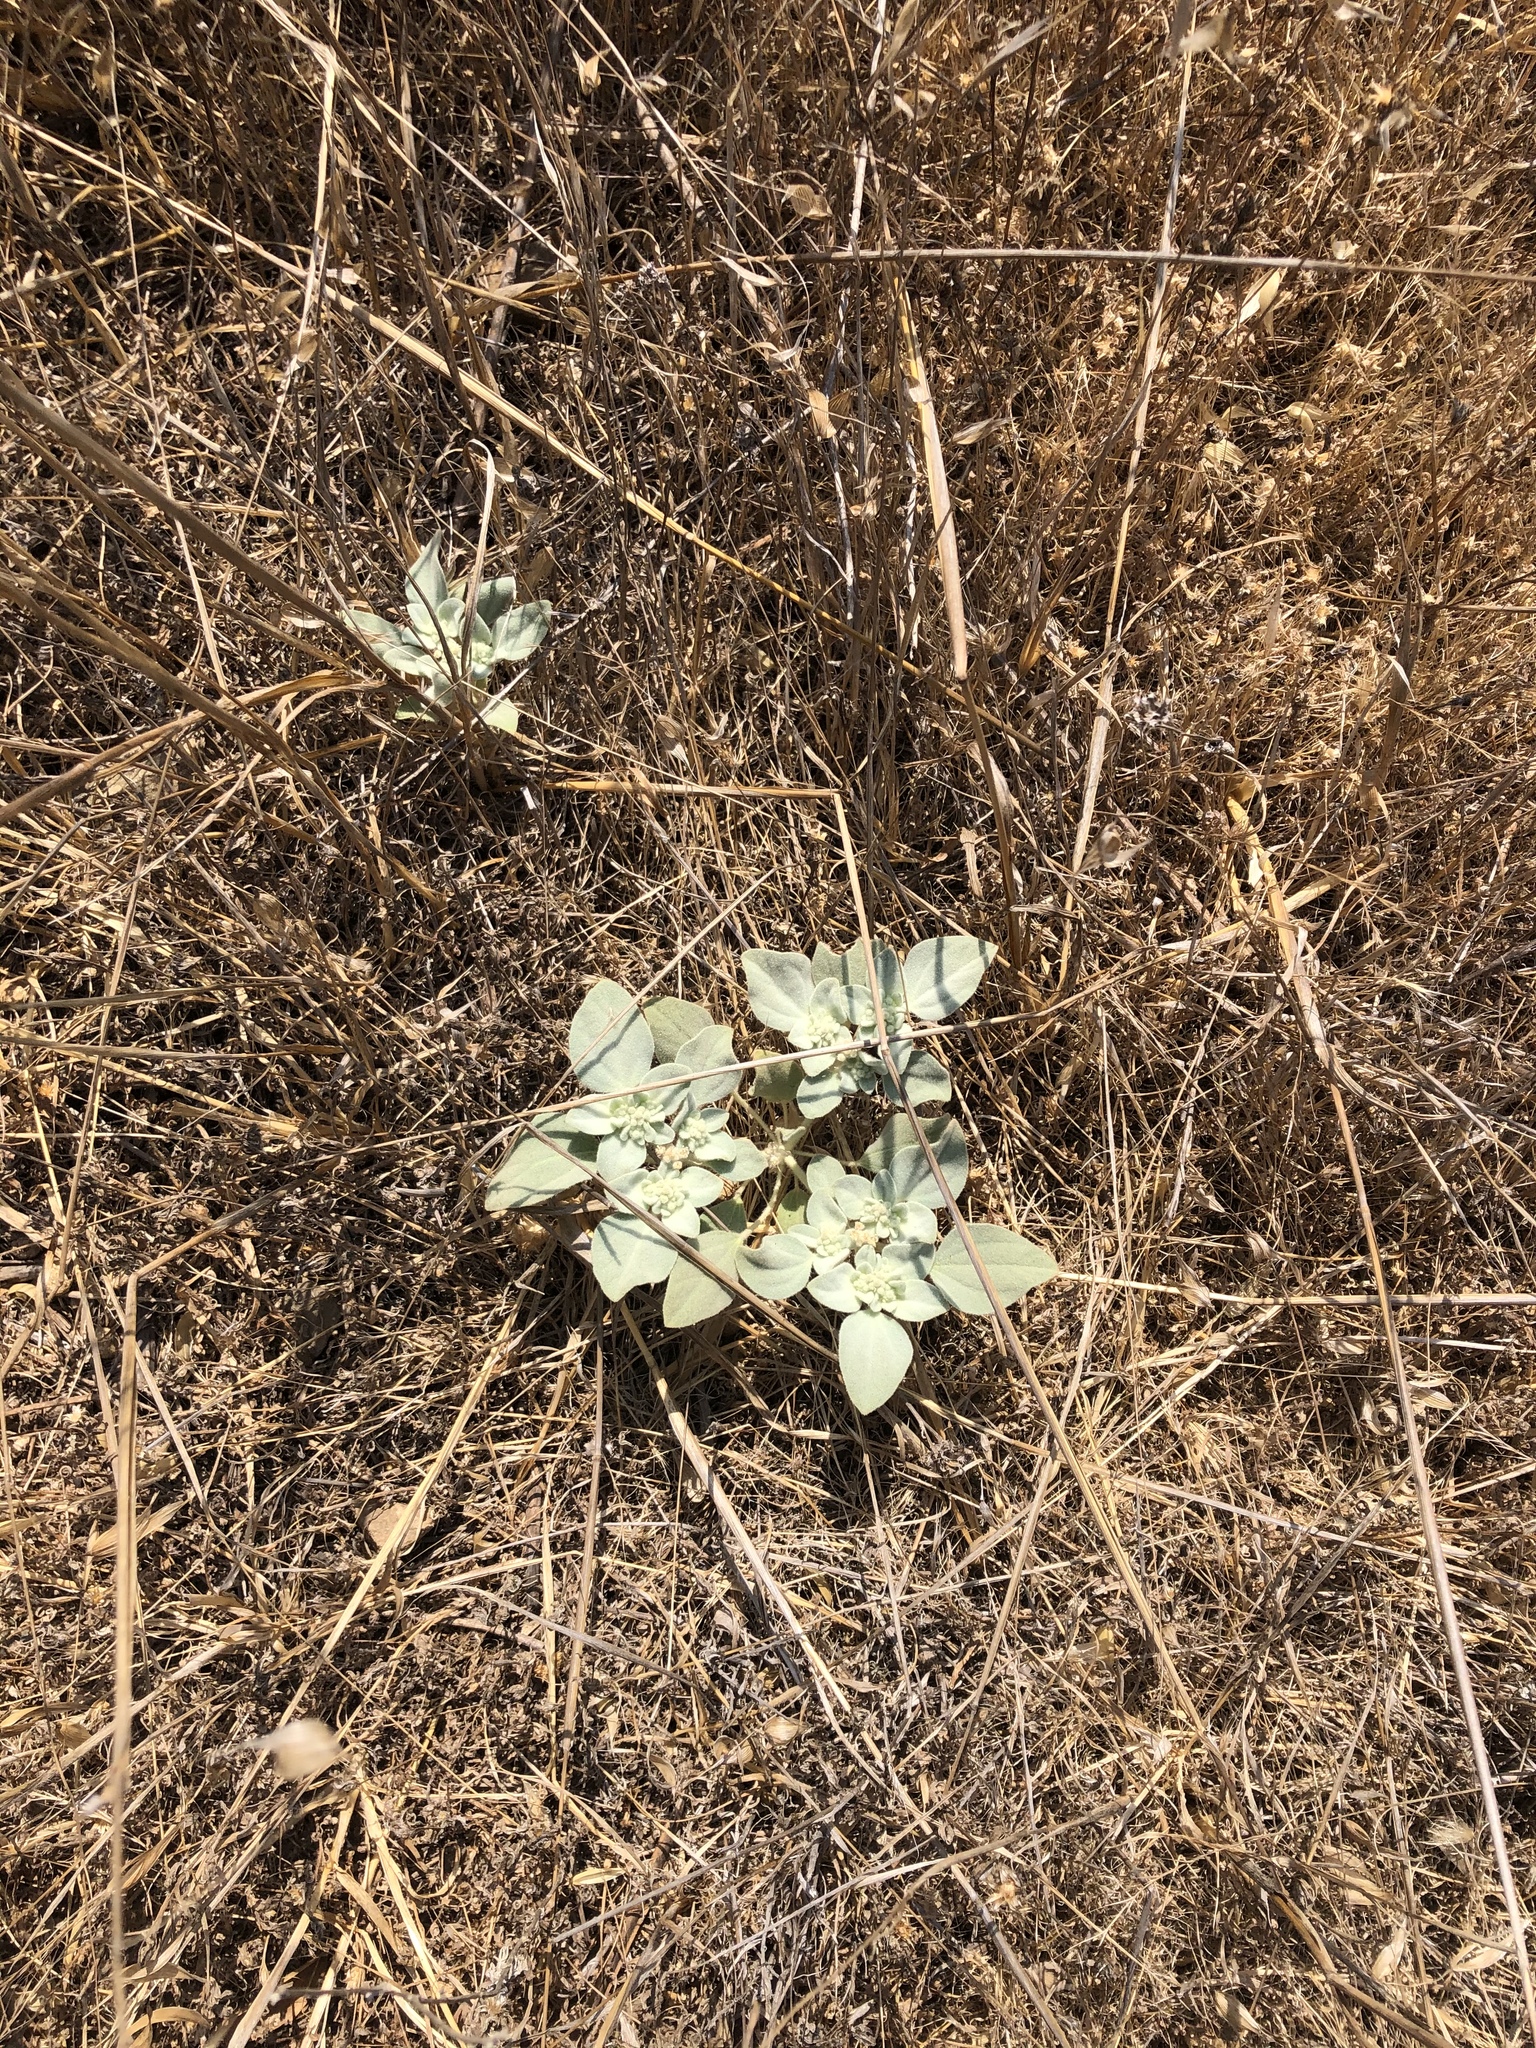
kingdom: Plantae
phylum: Tracheophyta
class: Magnoliopsida
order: Malpighiales
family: Euphorbiaceae
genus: Croton
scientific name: Croton setiger
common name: Dove weed
